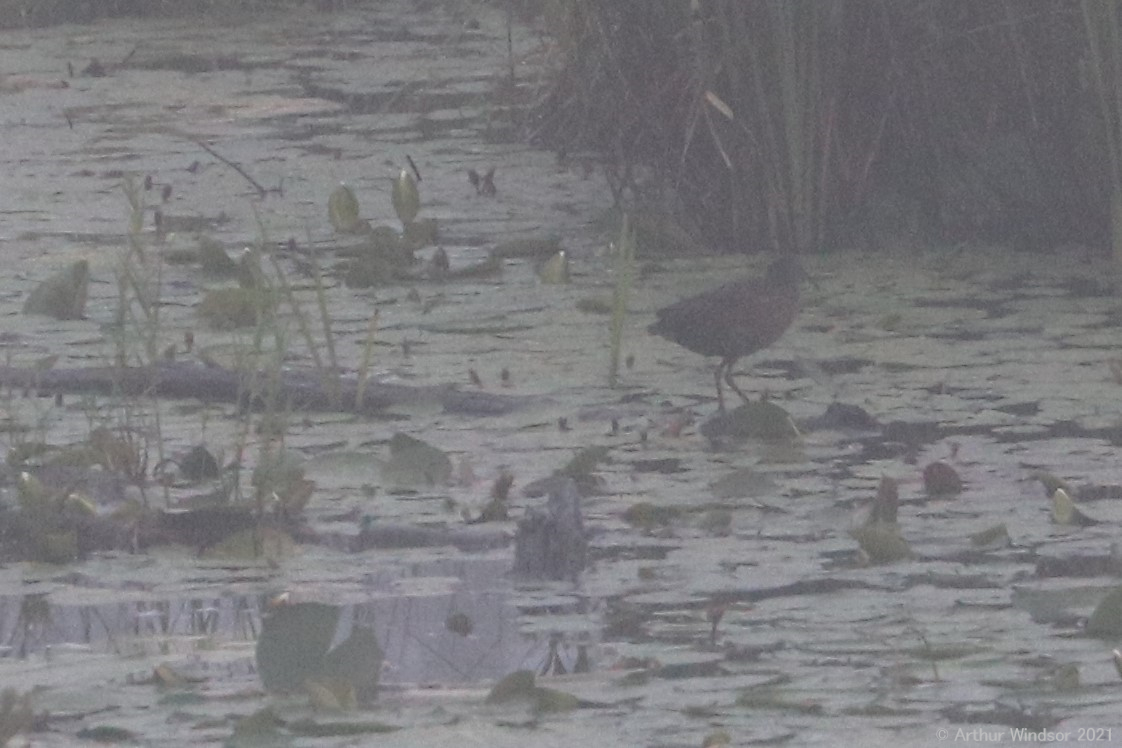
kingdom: Animalia
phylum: Chordata
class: Aves
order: Gruiformes
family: Rallidae
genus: Rallus
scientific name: Rallus limicola
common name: Virginia rail
